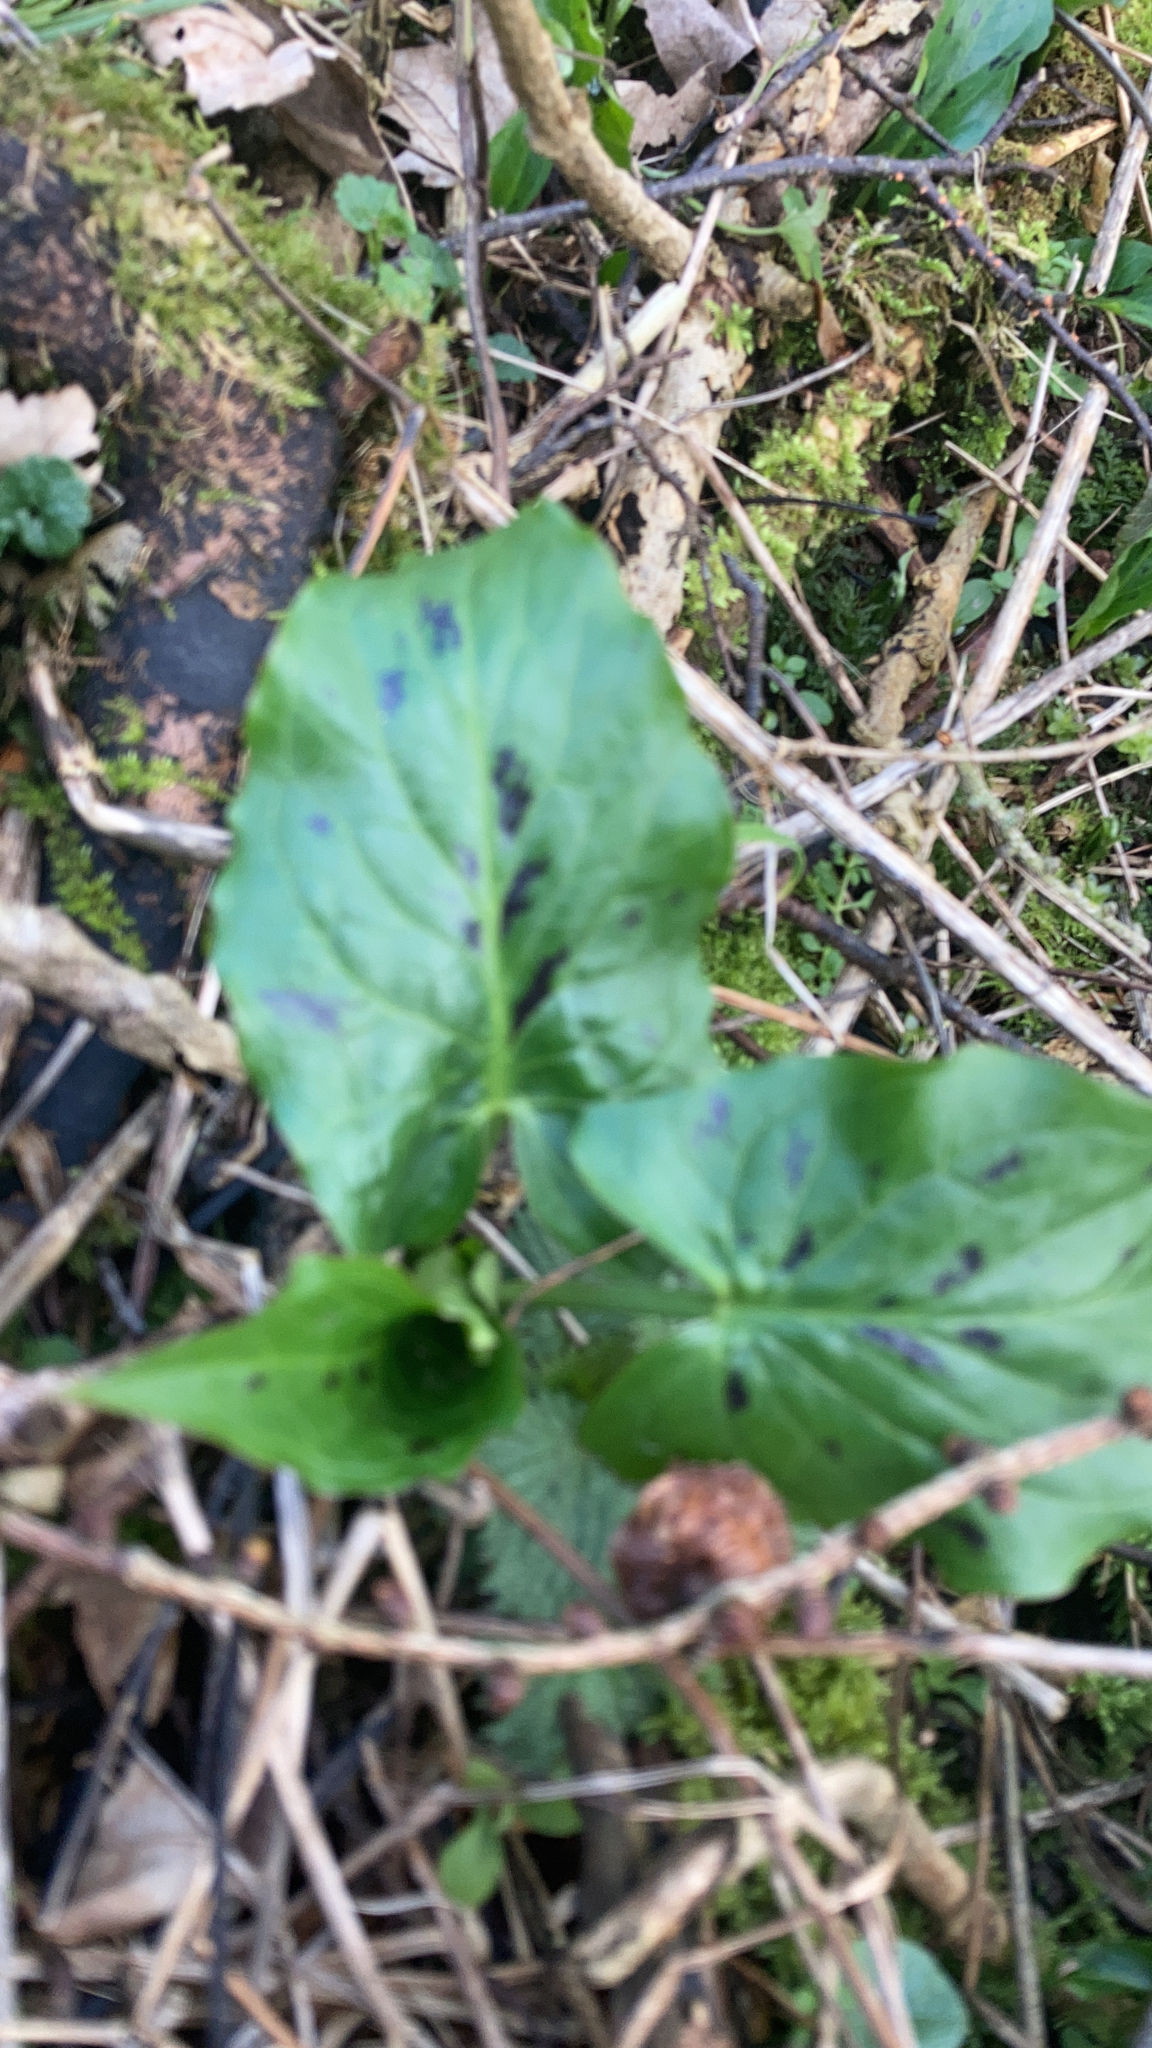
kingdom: Plantae
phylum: Tracheophyta
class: Liliopsida
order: Alismatales
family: Araceae
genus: Arum
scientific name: Arum maculatum
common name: Lords-and-ladies
